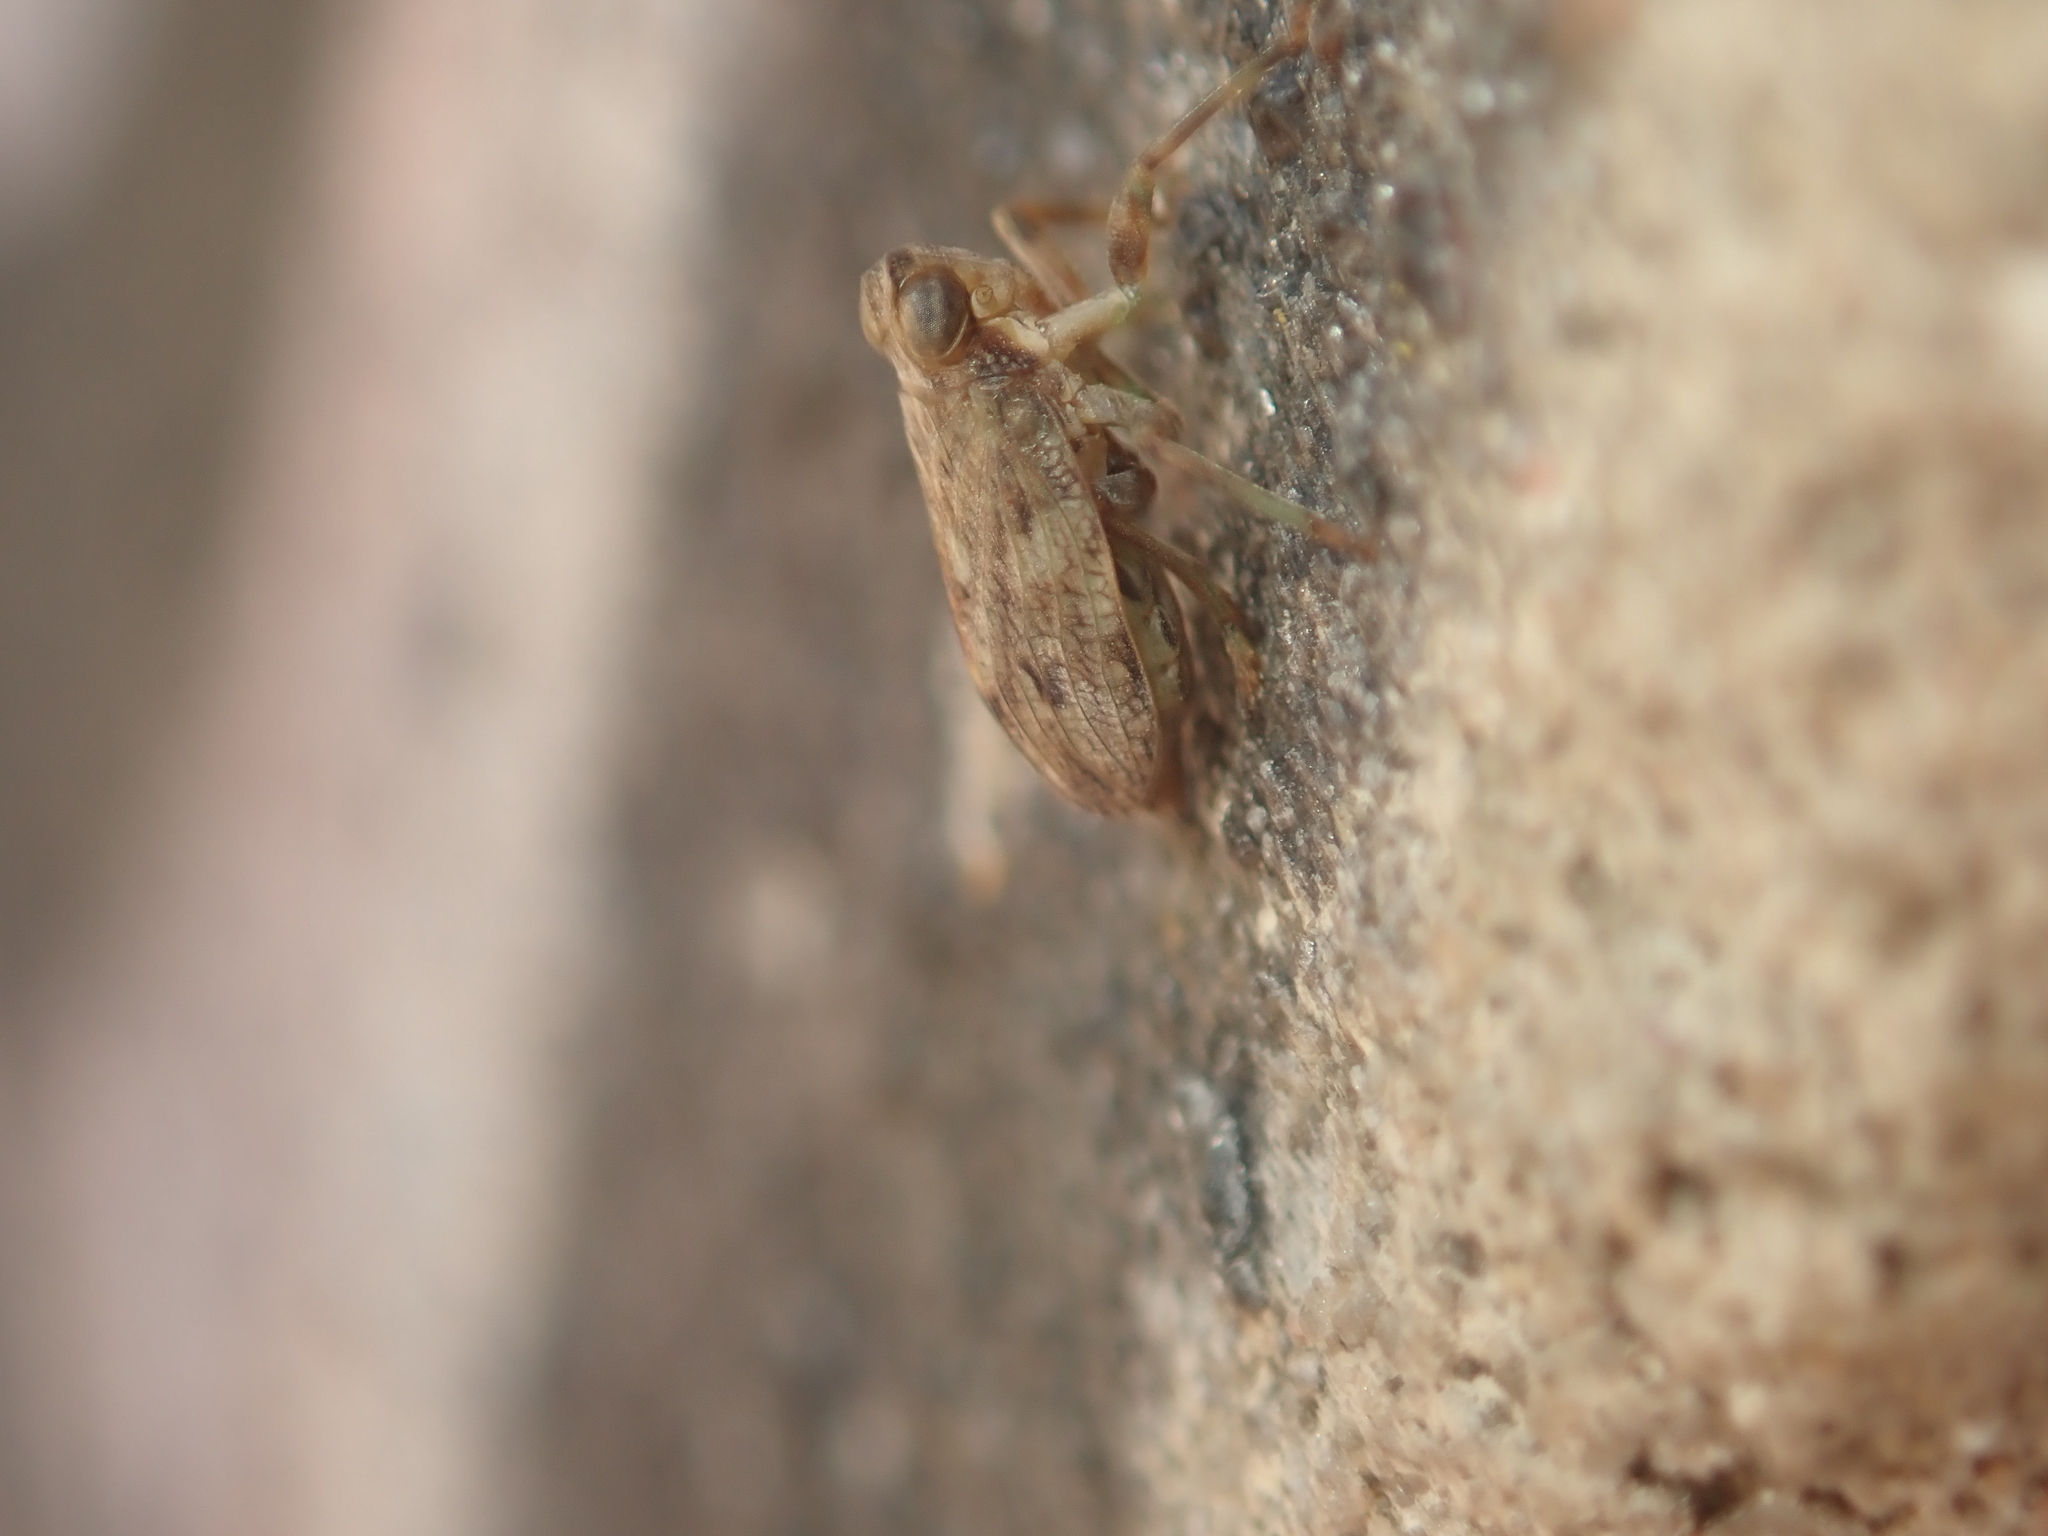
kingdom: Animalia
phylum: Arthropoda
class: Insecta
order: Hemiptera
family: Issidae
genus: Issus
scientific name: Issus coleoptratus
